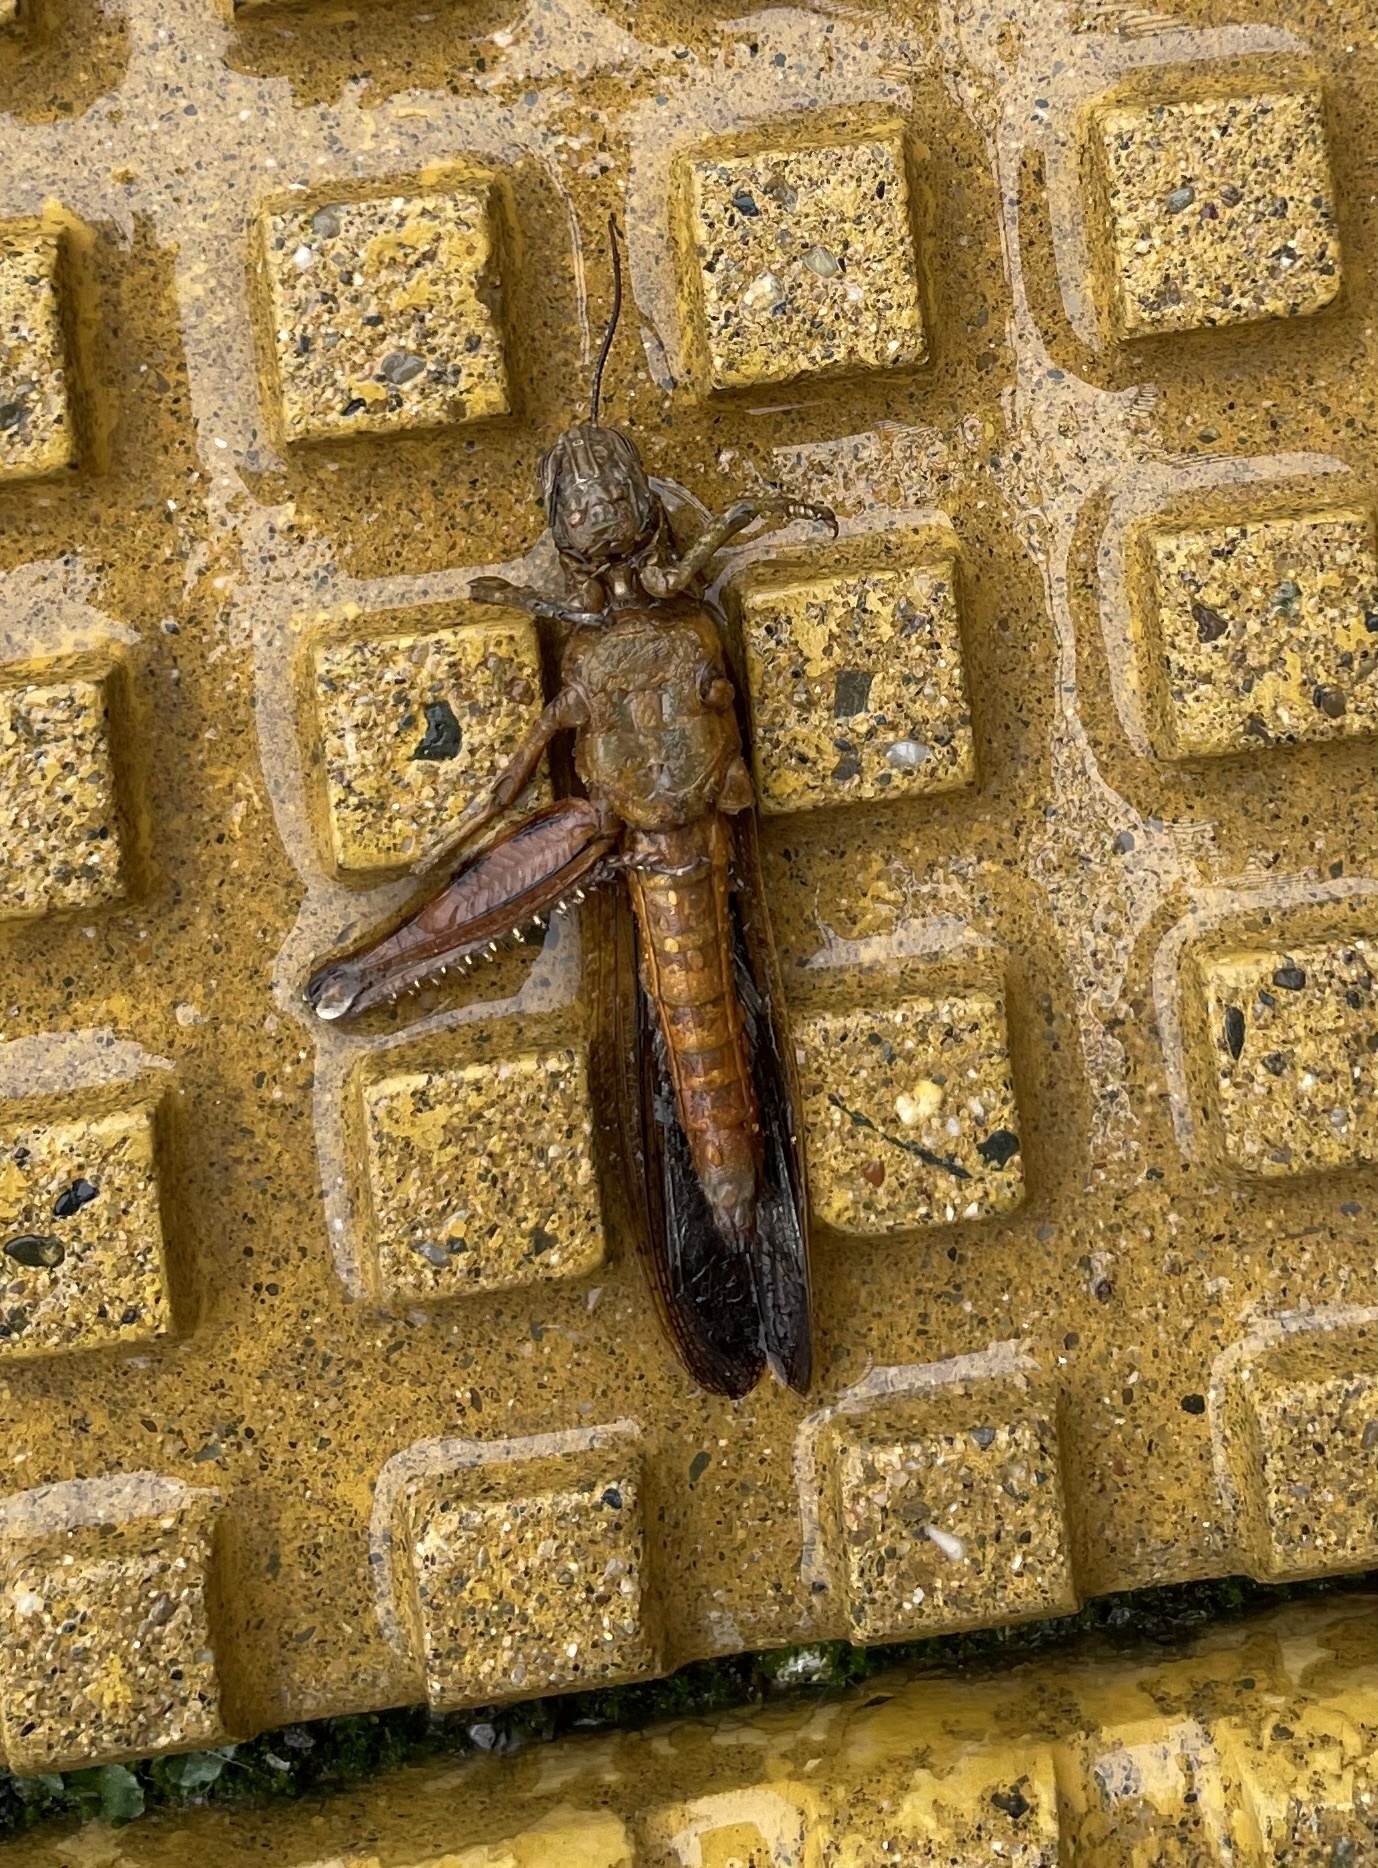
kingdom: Animalia
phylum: Arthropoda
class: Insecta
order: Orthoptera
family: Acrididae
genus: Anacridium
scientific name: Anacridium aegyptium
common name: Egyptian grasshopper
